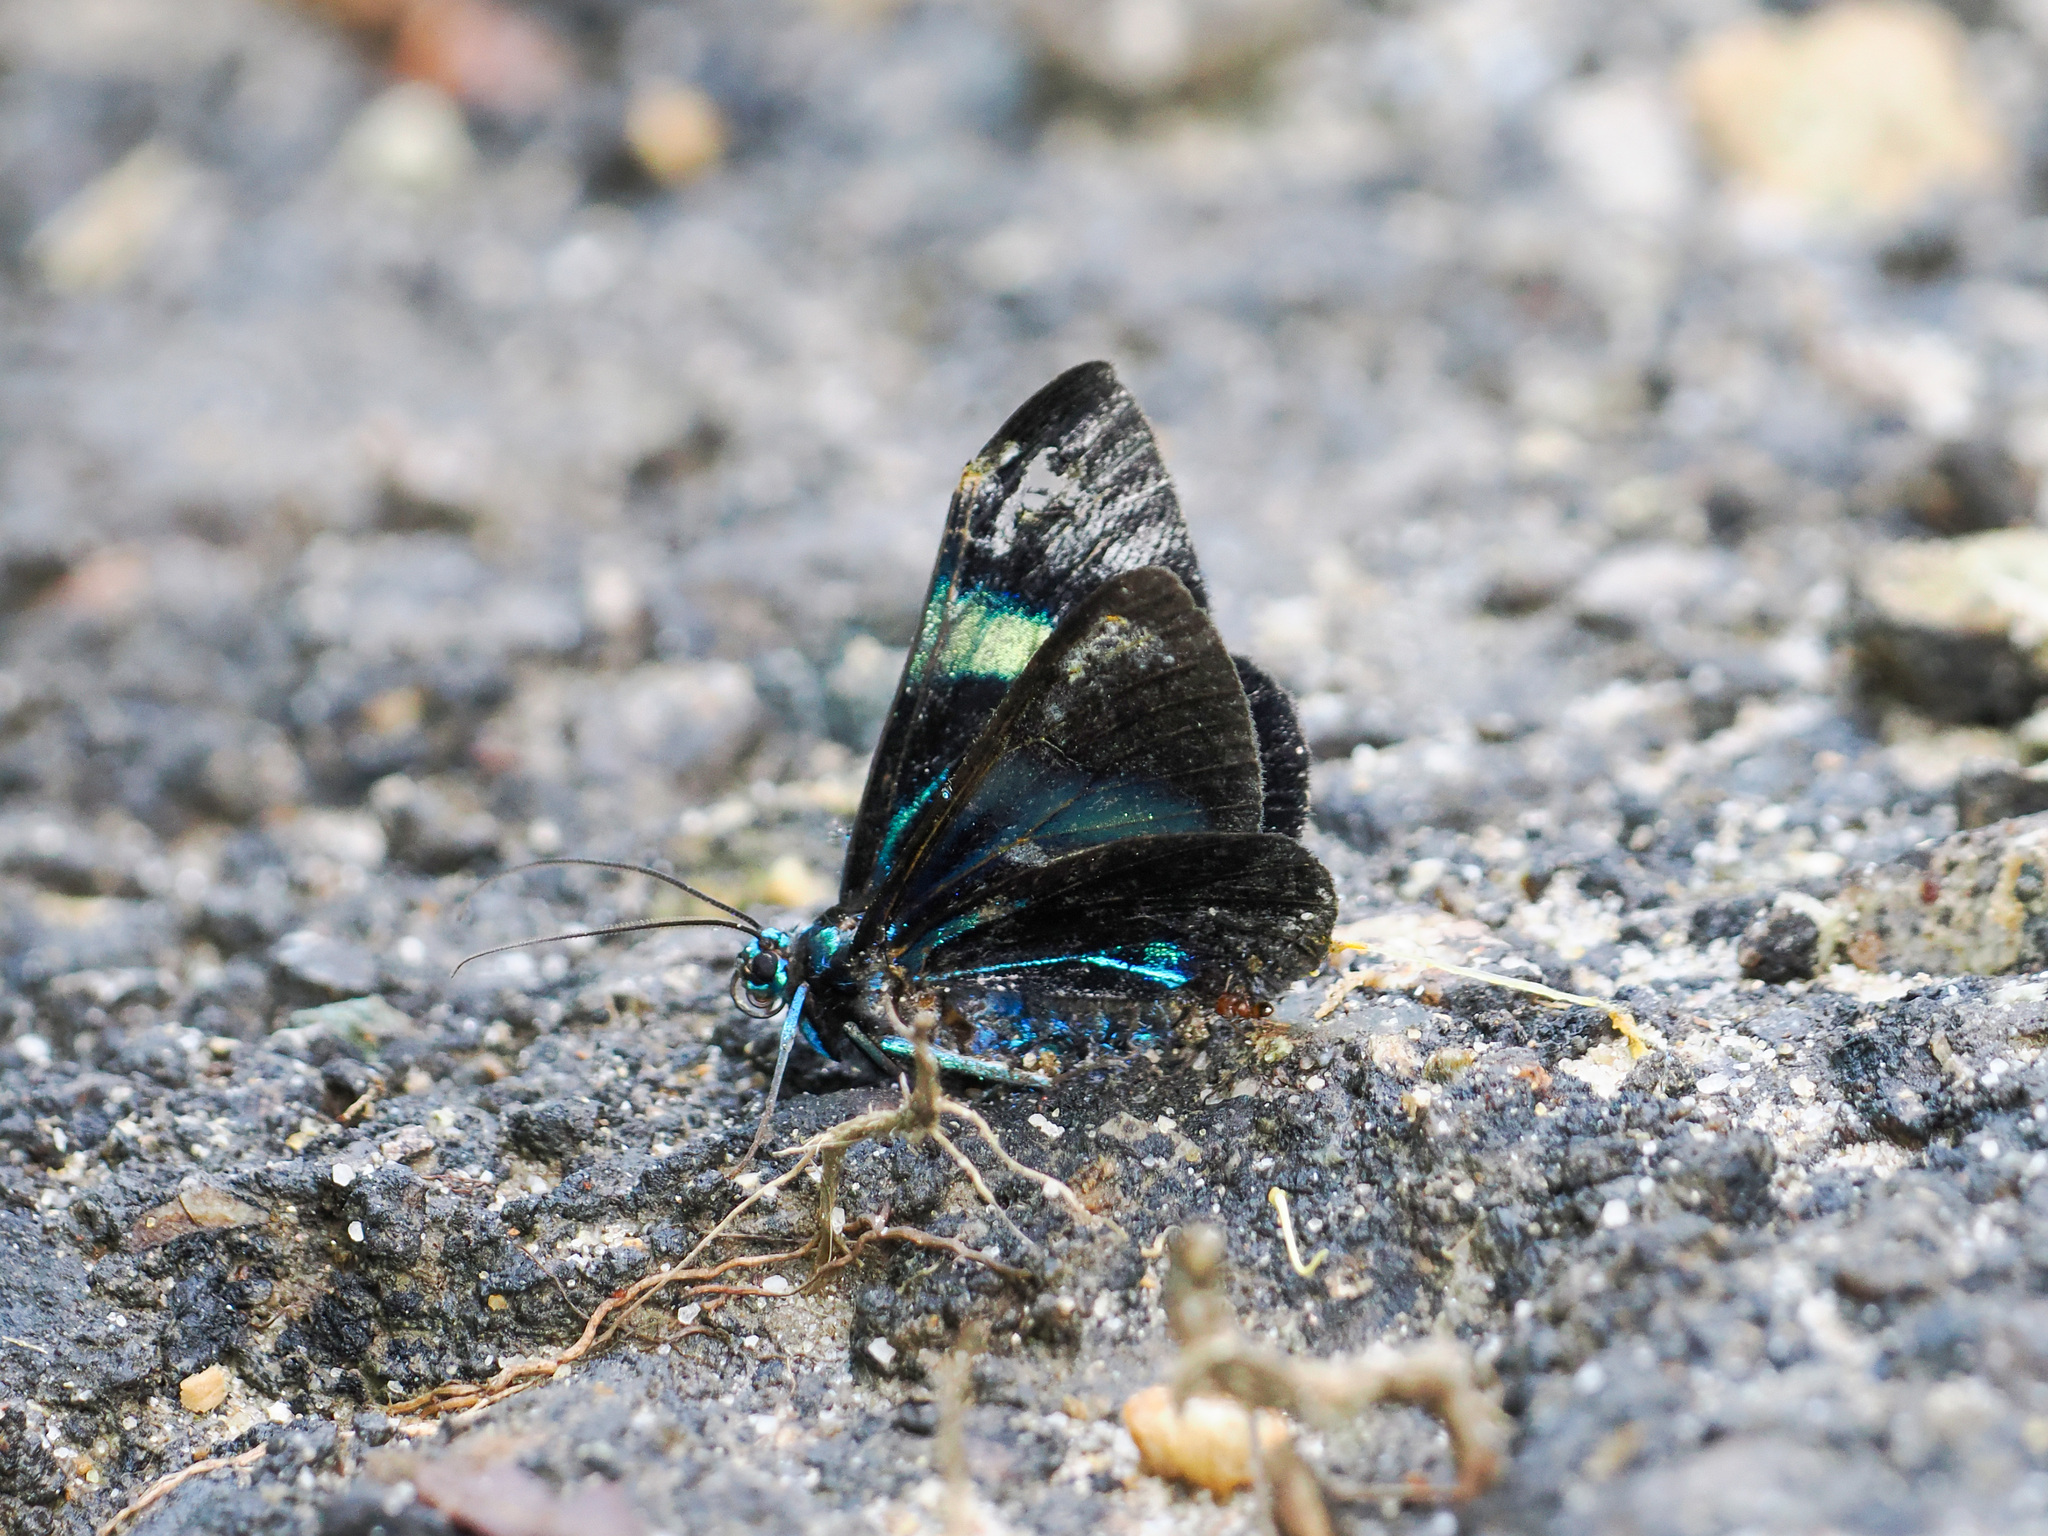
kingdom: Animalia
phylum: Arthropoda
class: Insecta
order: Lepidoptera
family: Geometridae
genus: Milionia
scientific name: Milionia
